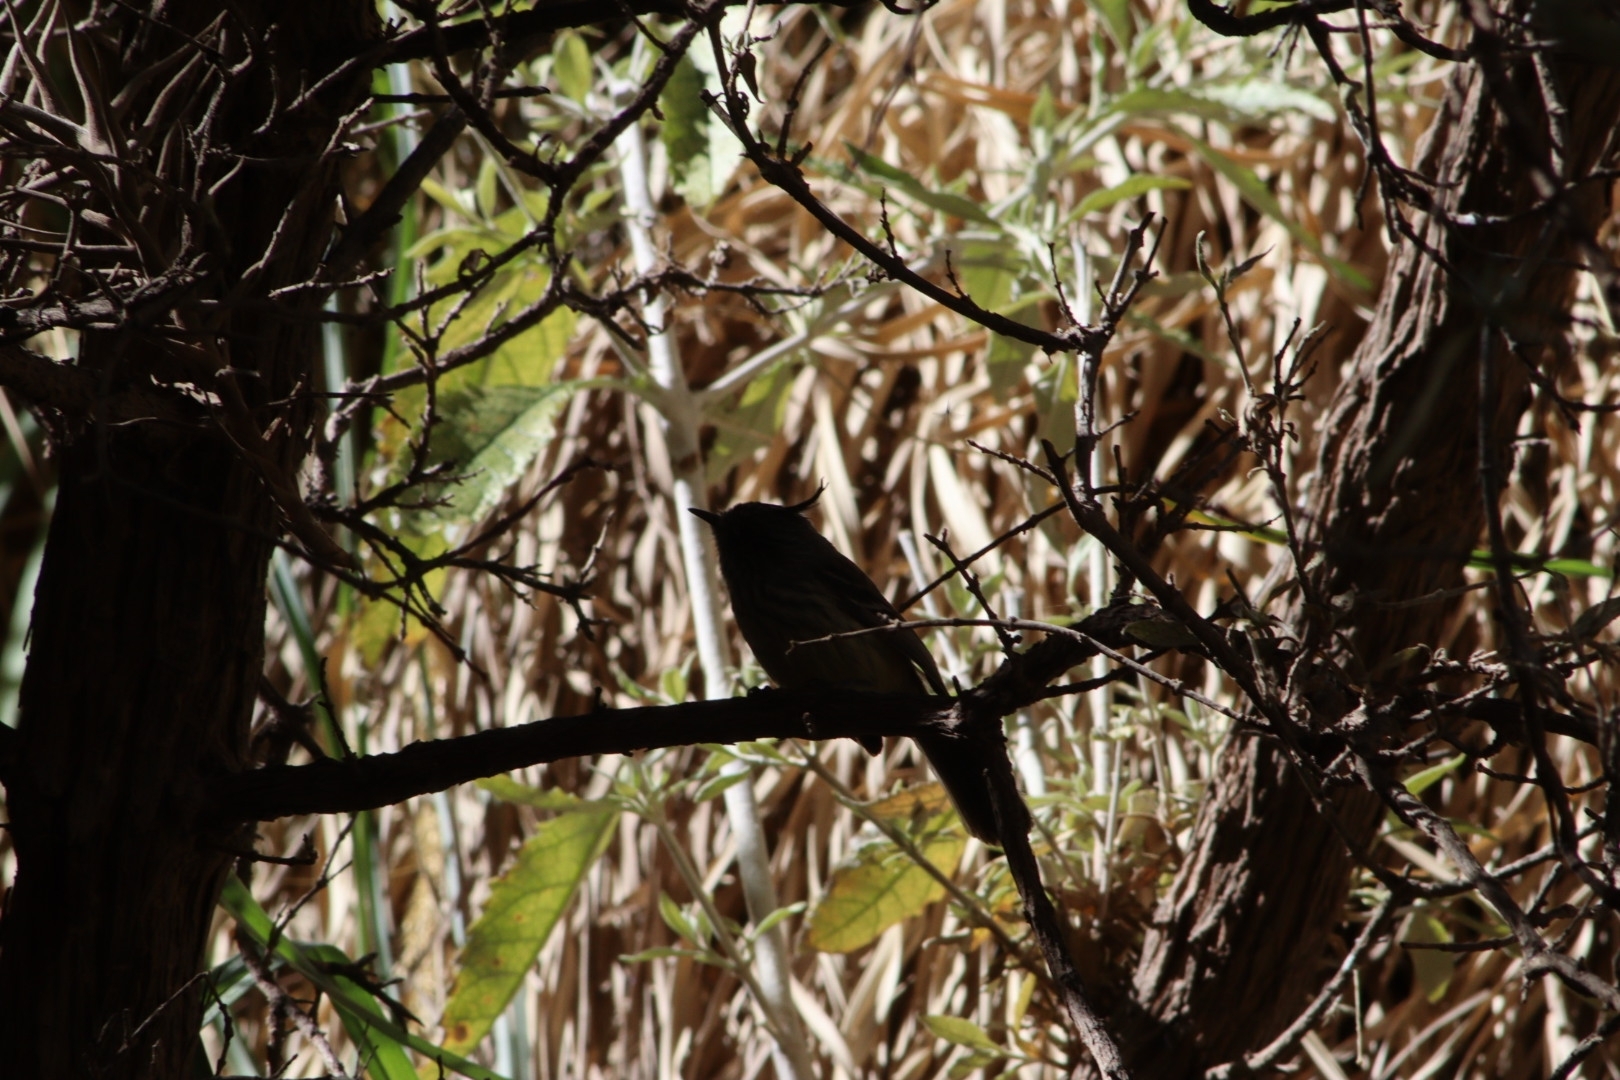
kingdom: Animalia
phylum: Chordata
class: Aves
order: Passeriformes
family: Tyrannidae
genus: Anairetes
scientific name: Anairetes parulus
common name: Tufted tit-tyrant
